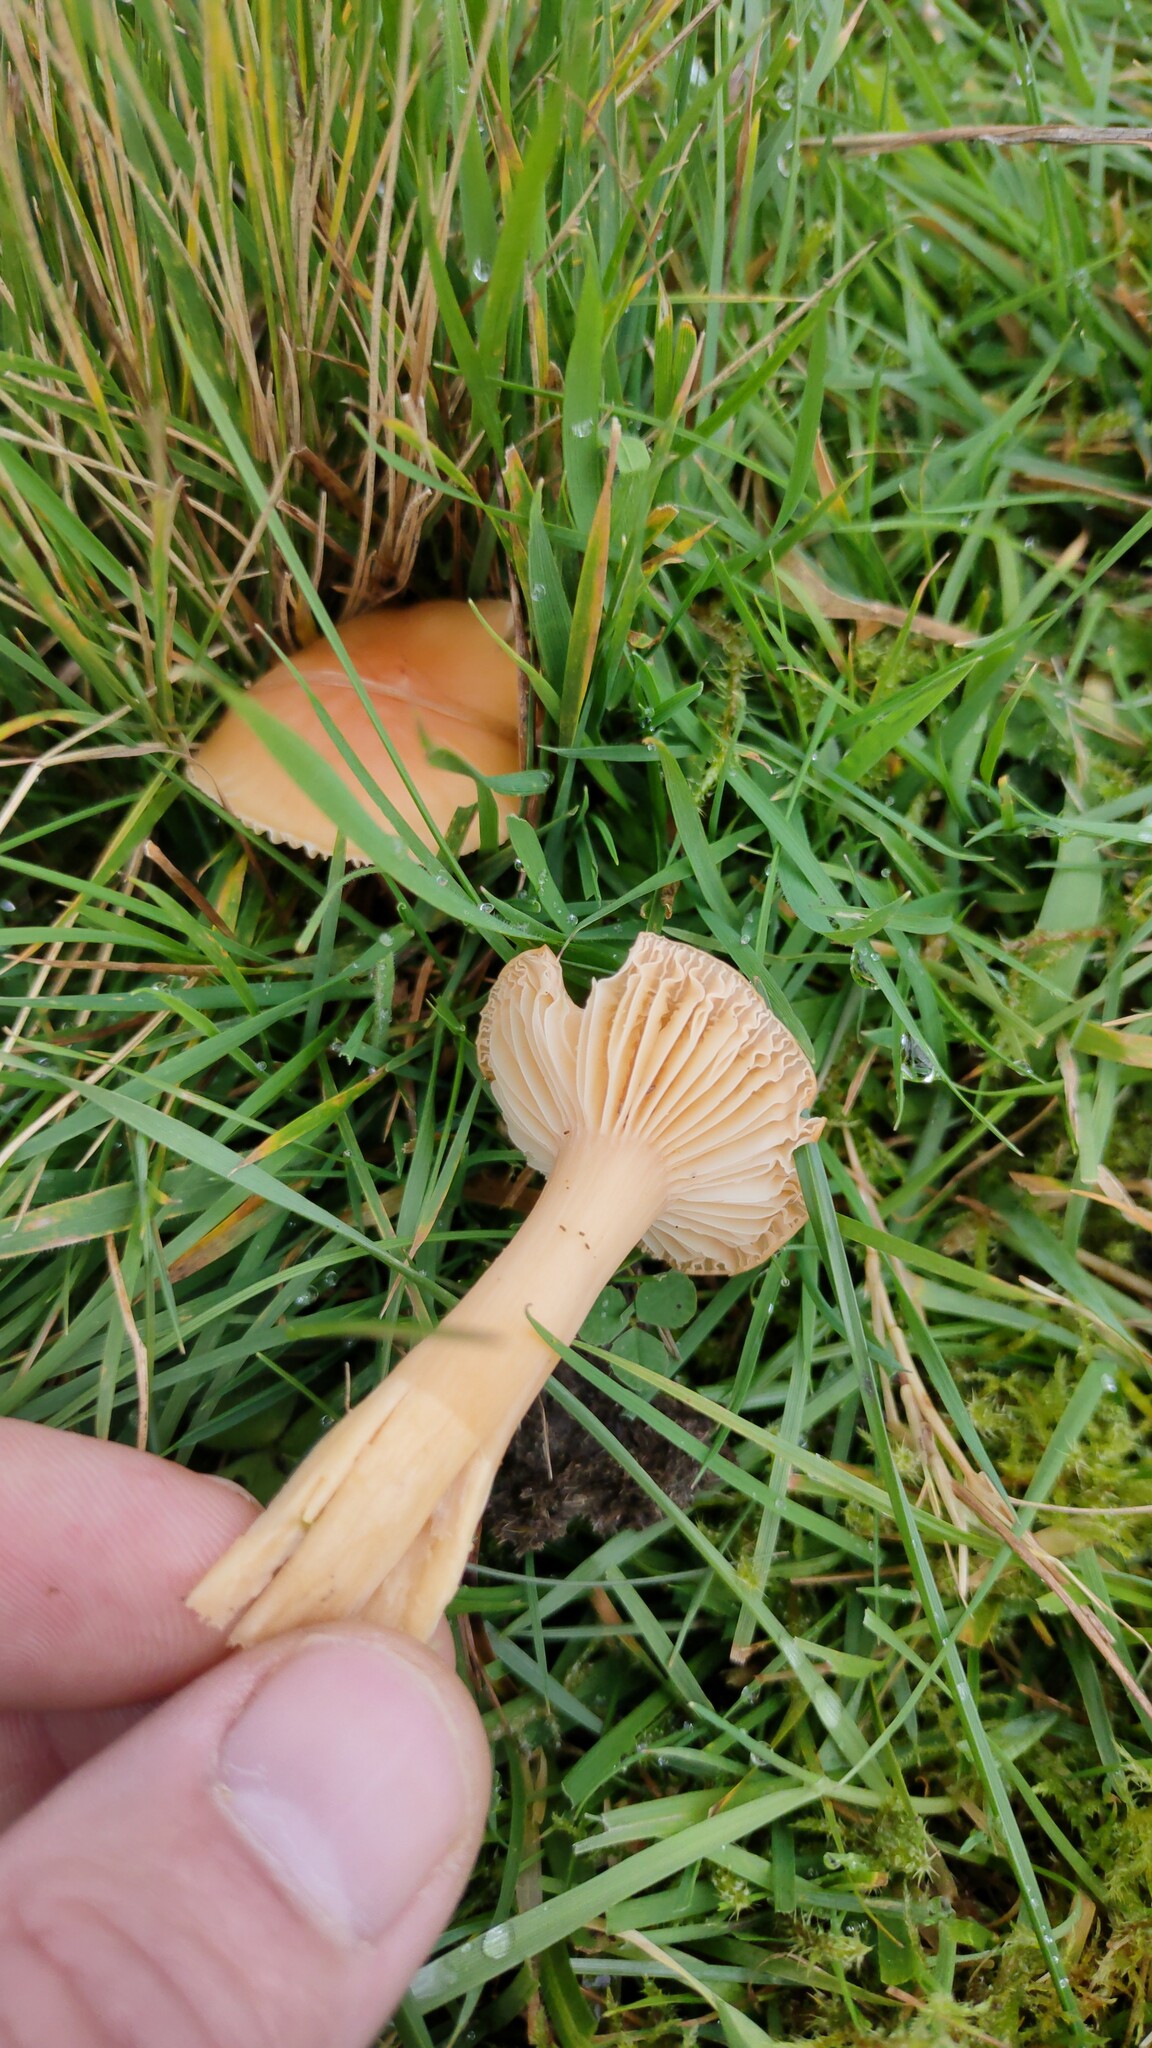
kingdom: Fungi
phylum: Basidiomycota
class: Agaricomycetes
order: Agaricales
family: Hygrophoraceae
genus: Cuphophyllus
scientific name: Cuphophyllus pratensis
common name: Meadow waxcap
